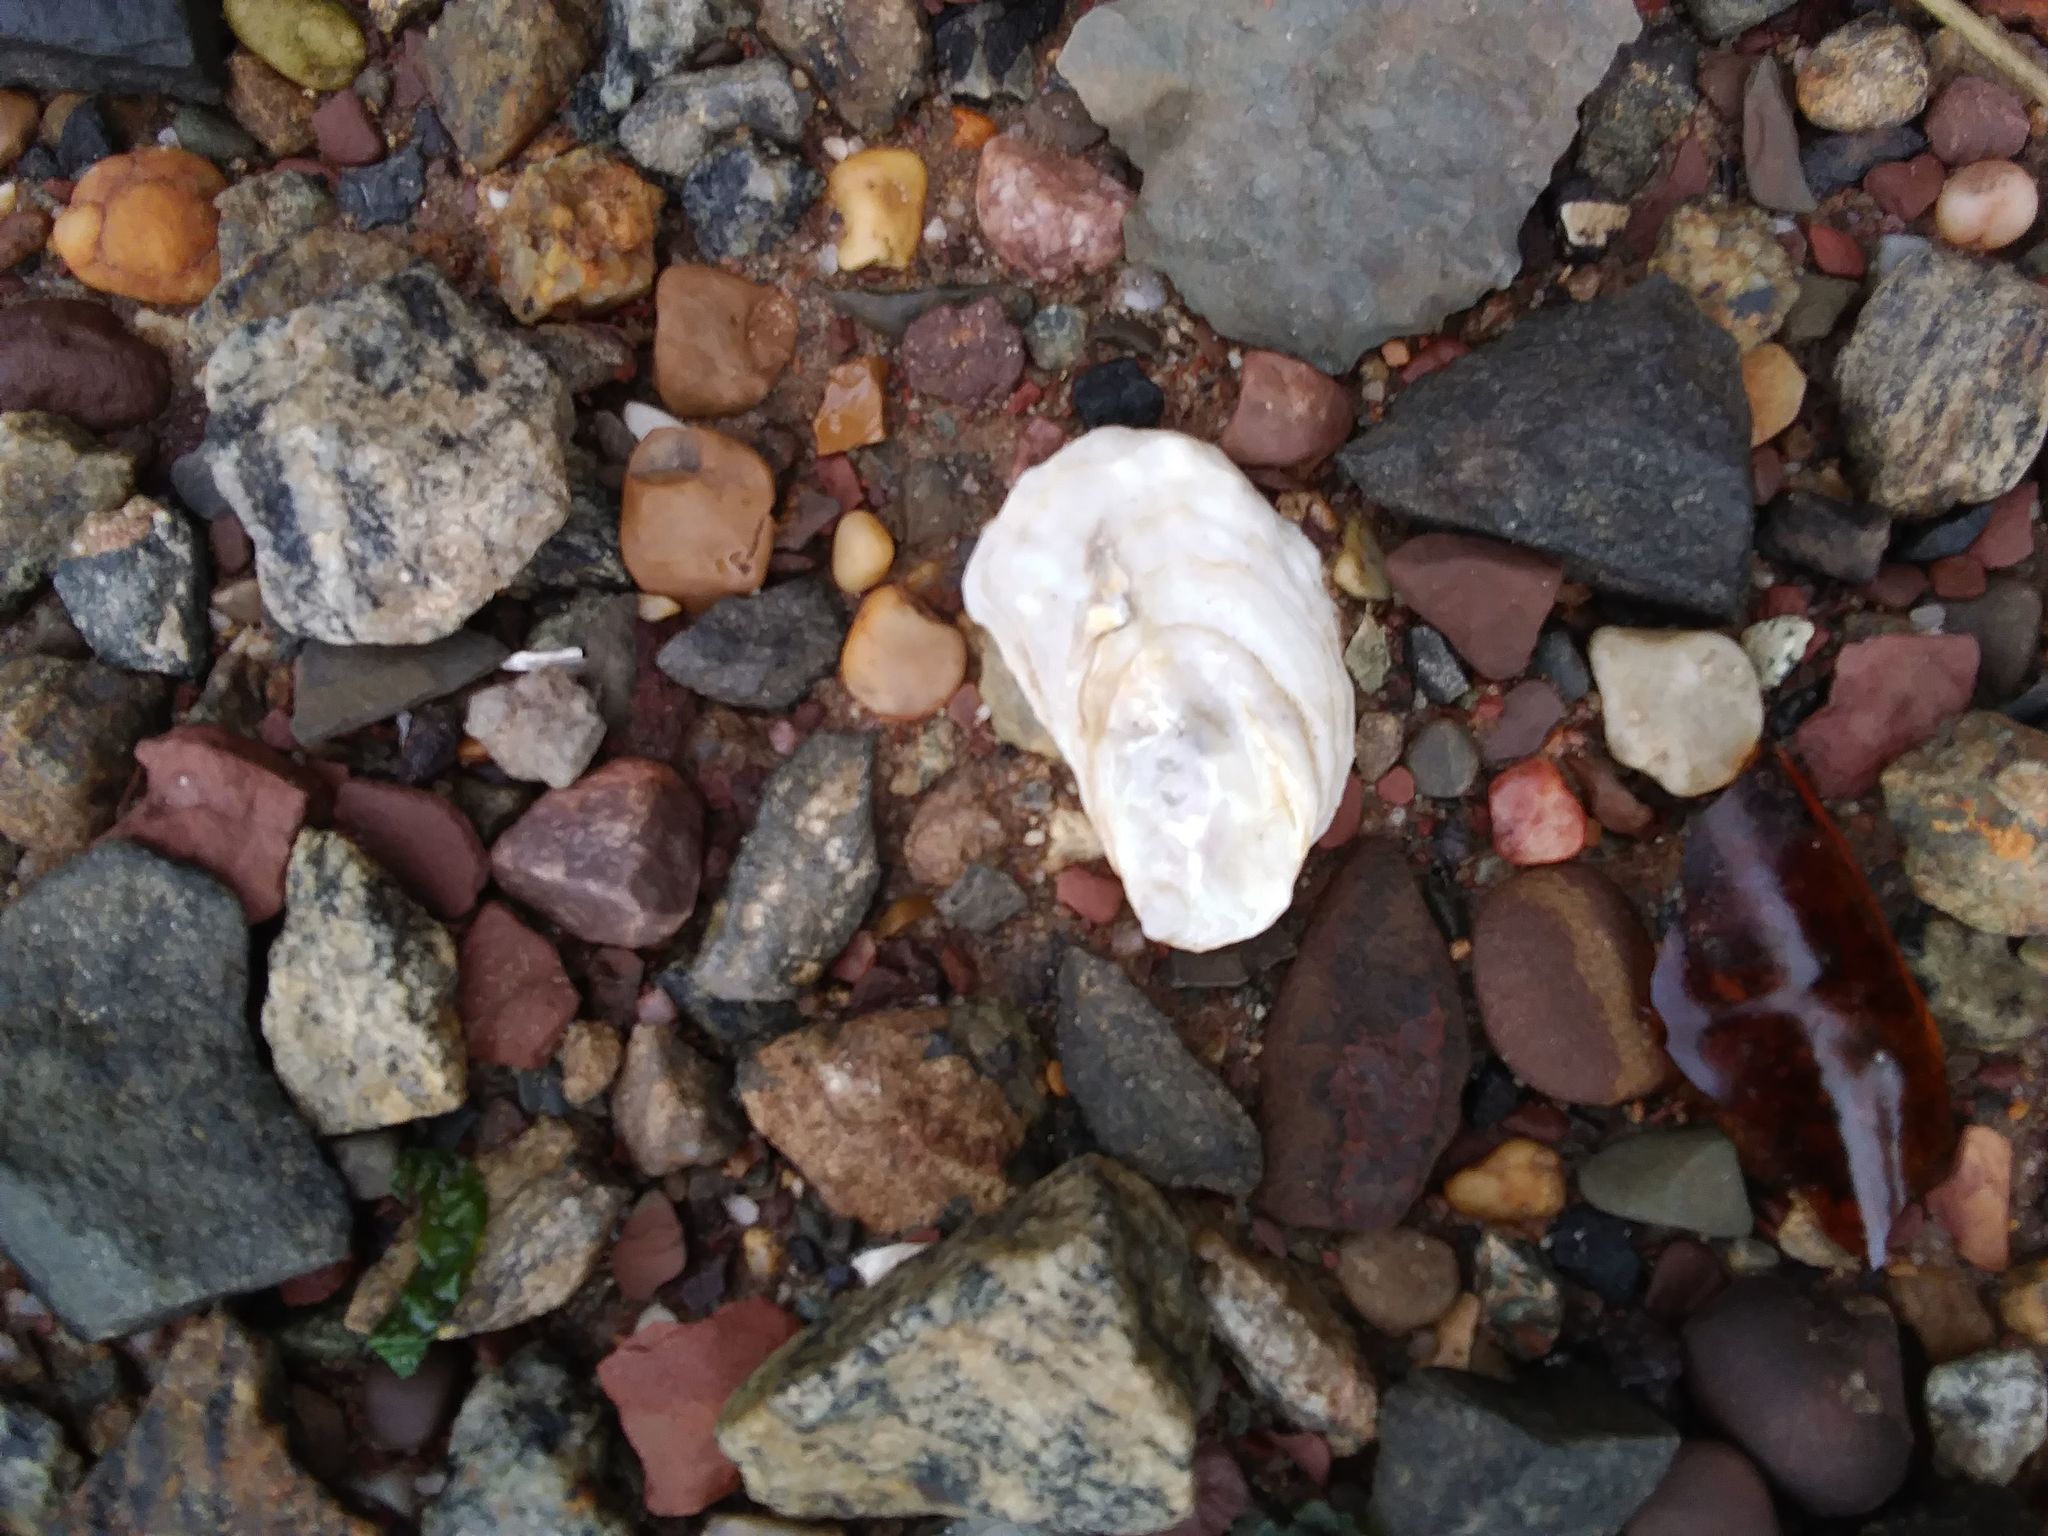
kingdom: Animalia
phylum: Mollusca
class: Bivalvia
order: Ostreida
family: Ostreidae
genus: Crassostrea
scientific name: Crassostrea virginica
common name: American oyster
